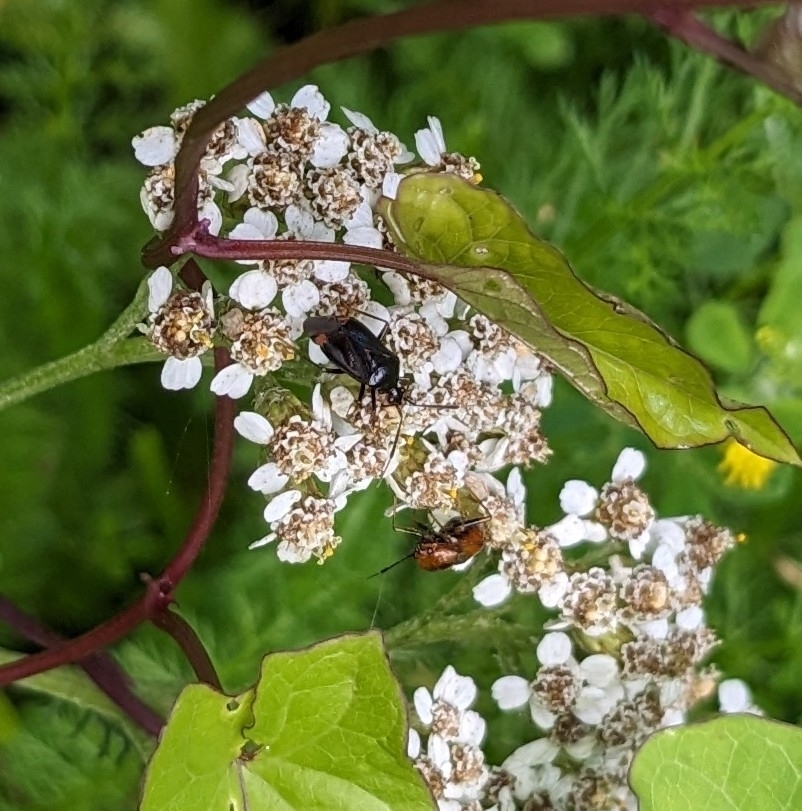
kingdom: Animalia
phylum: Arthropoda
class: Insecta
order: Hemiptera
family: Miridae
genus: Deraeocoris
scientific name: Deraeocoris ruber
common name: Plant bug
